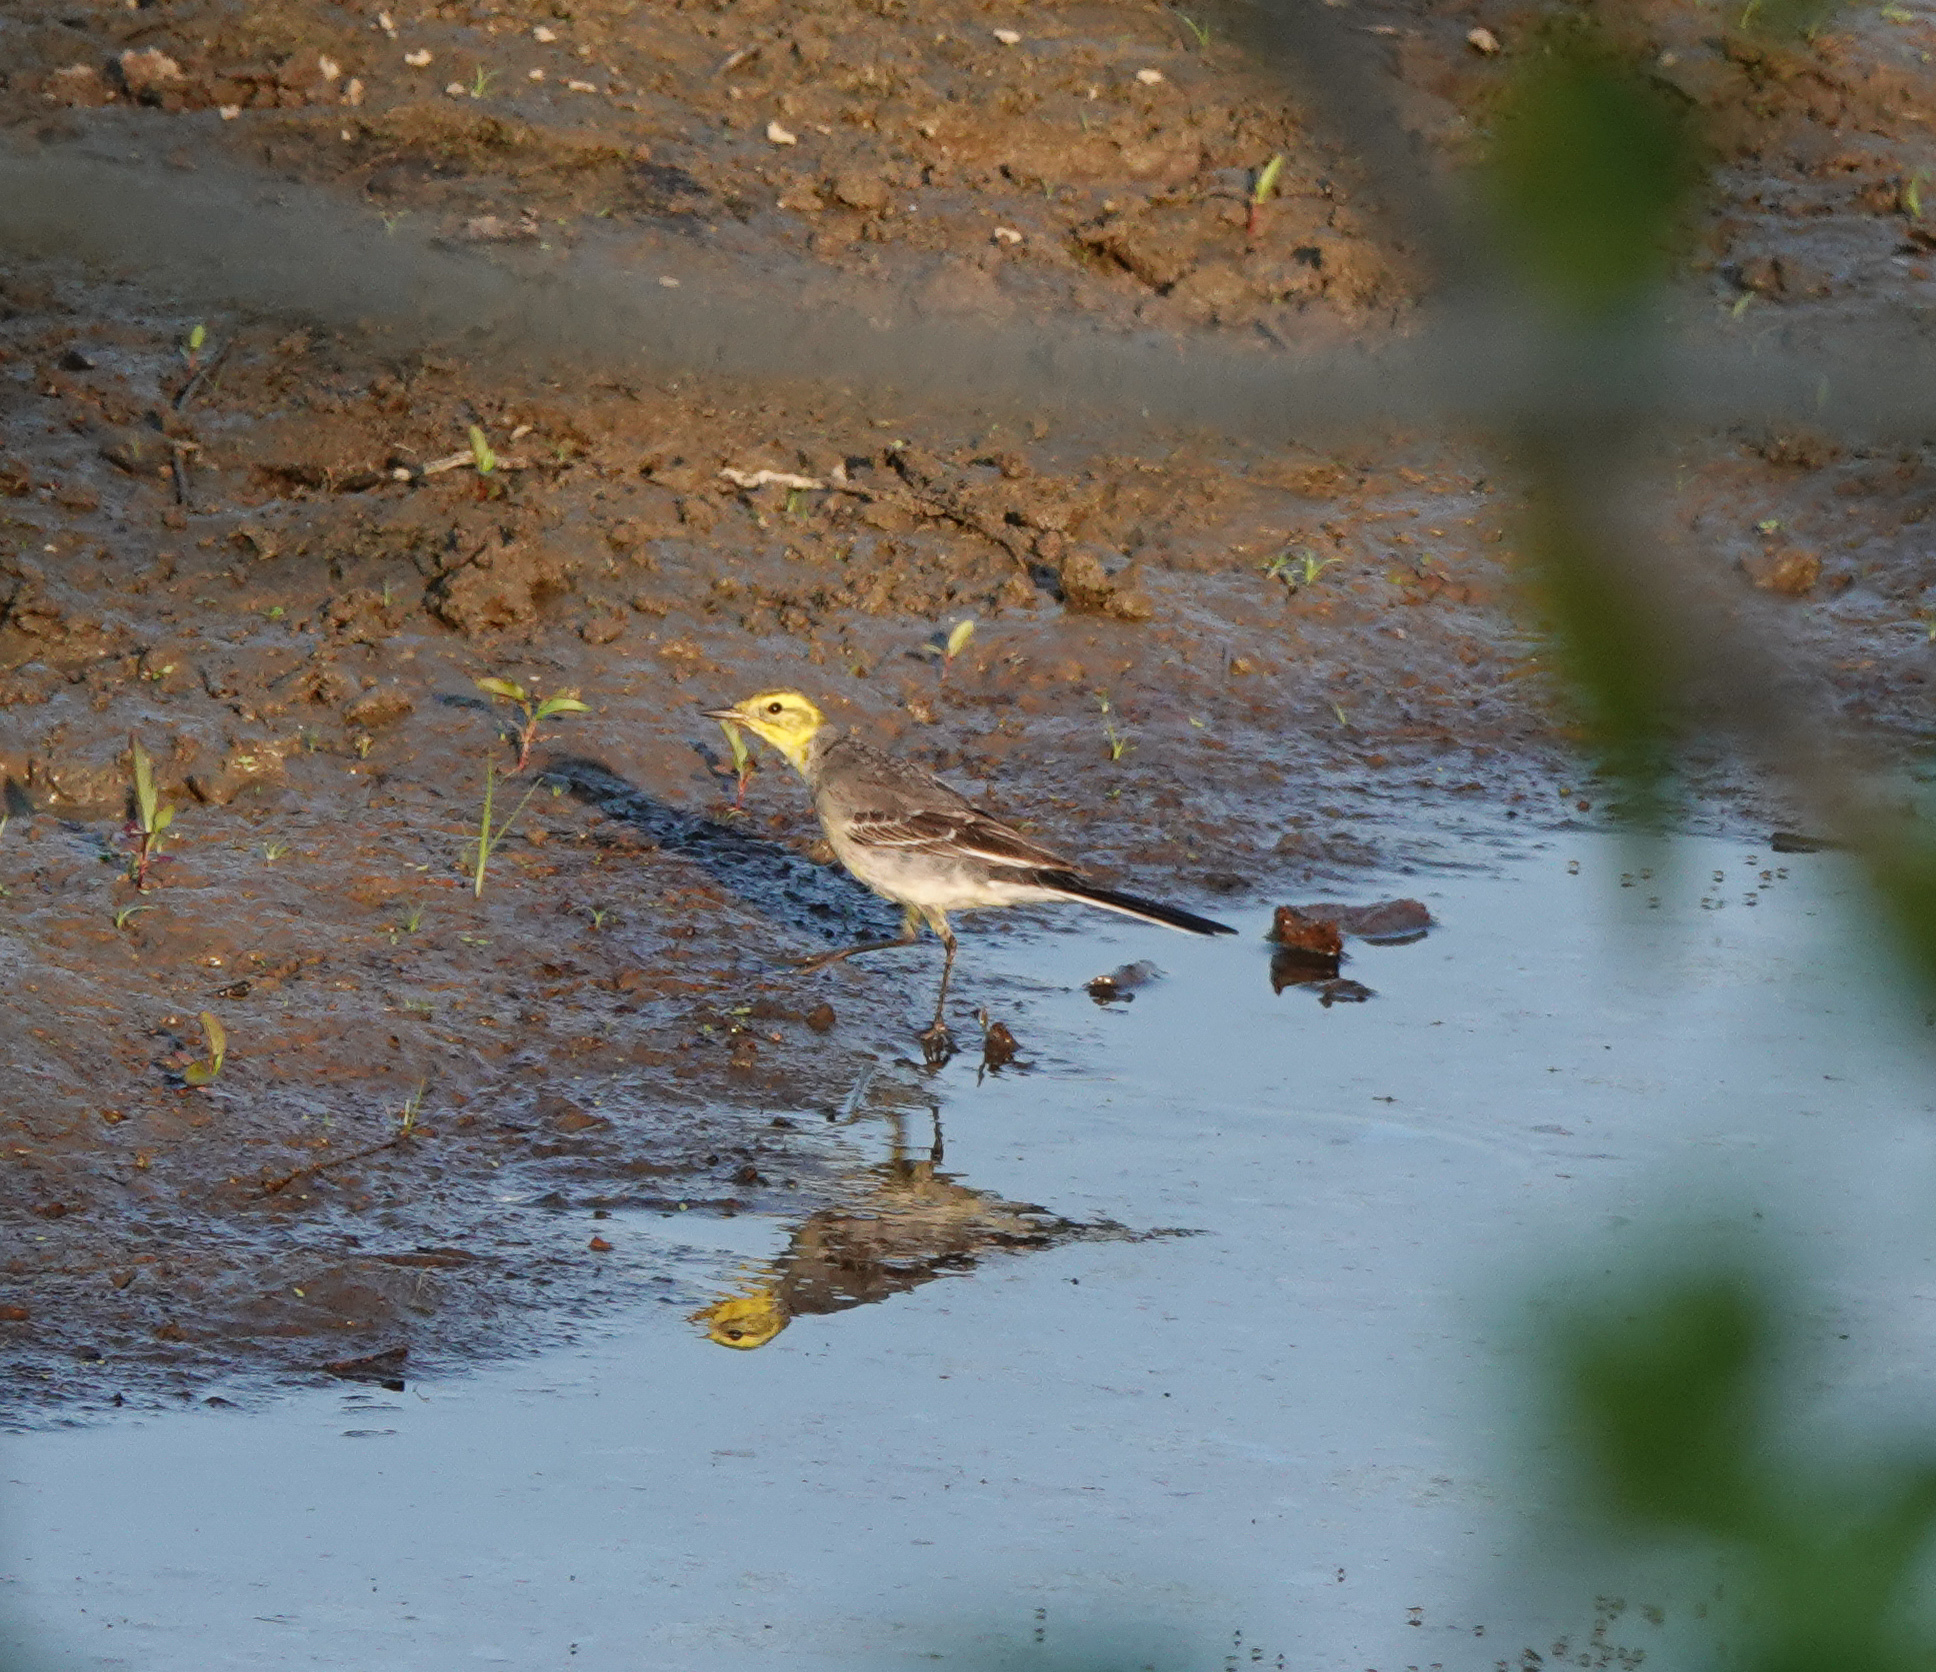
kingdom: Animalia
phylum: Chordata
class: Aves
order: Passeriformes
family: Motacillidae
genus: Motacilla
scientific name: Motacilla citreola
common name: Citrine wagtail
